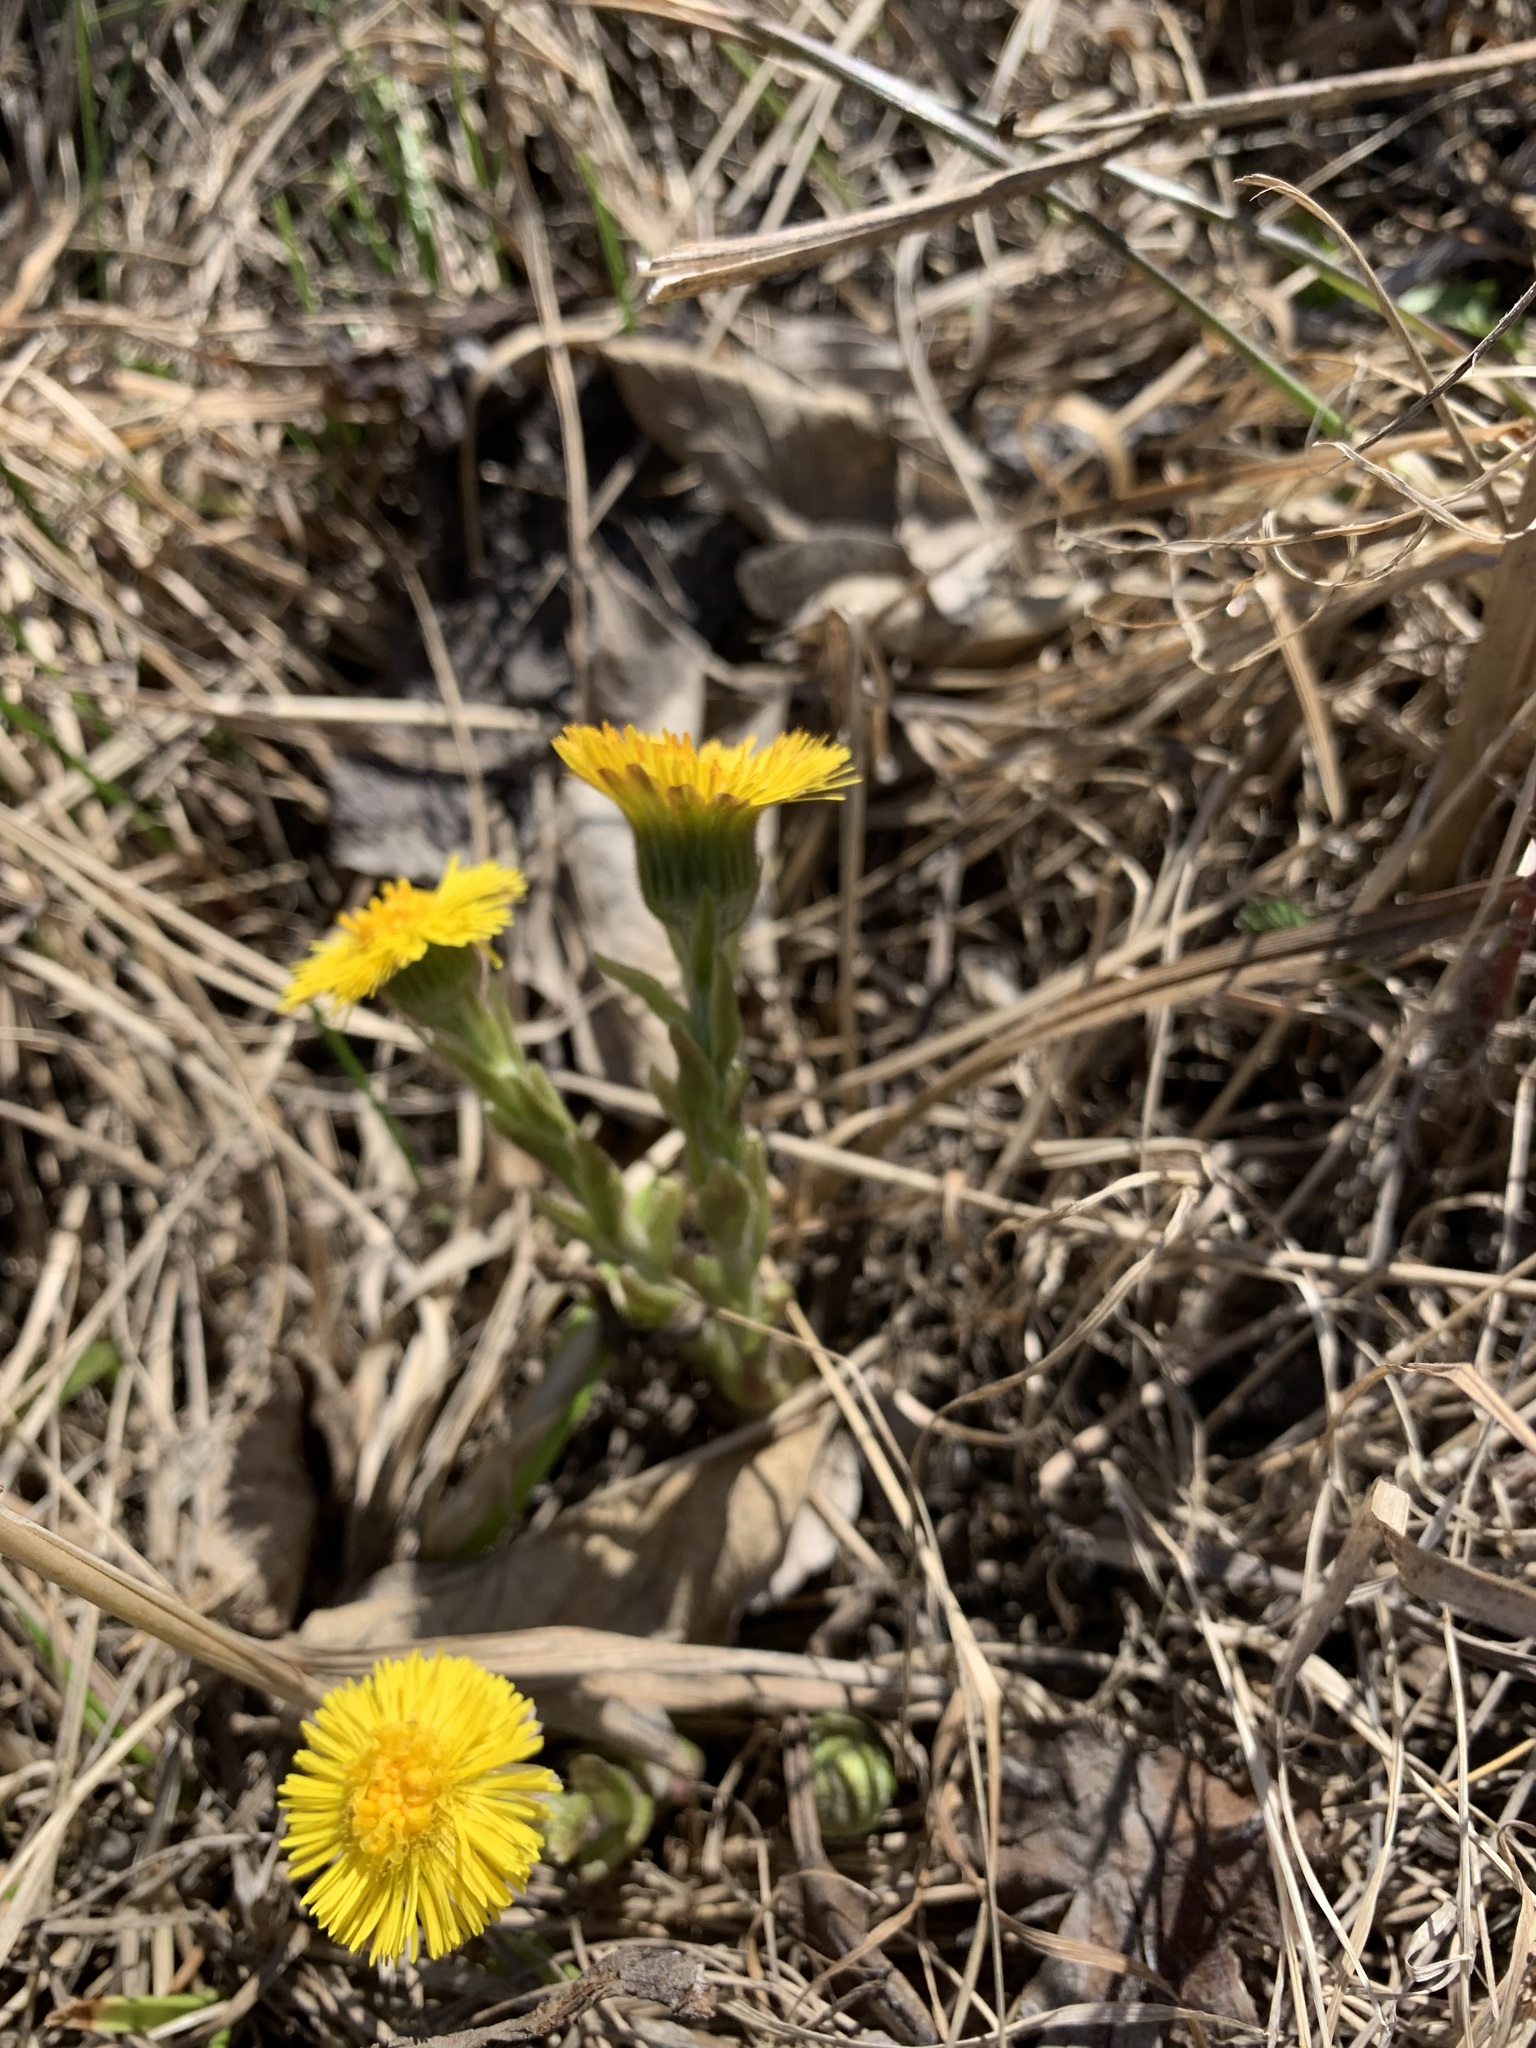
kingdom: Plantae
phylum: Tracheophyta
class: Magnoliopsida
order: Asterales
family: Asteraceae
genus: Tussilago
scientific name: Tussilago farfara
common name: Coltsfoot
